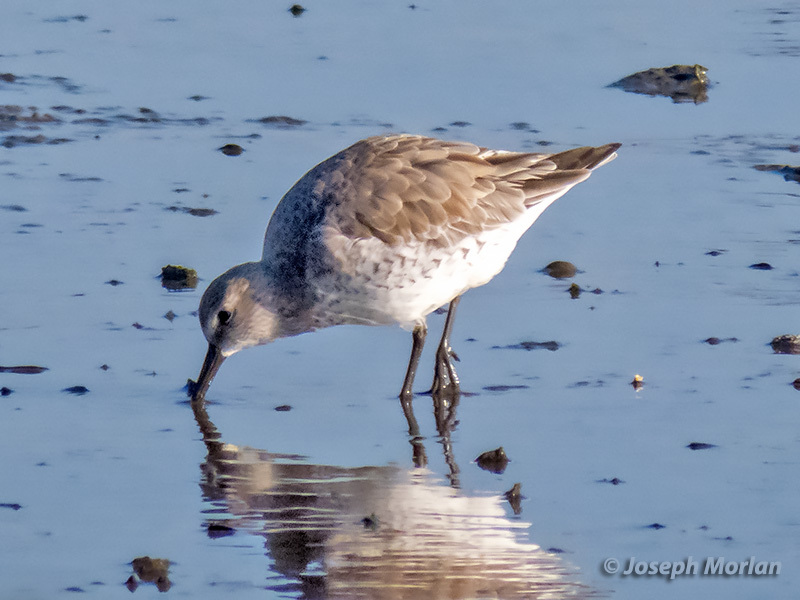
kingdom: Animalia
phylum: Chordata
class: Aves
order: Charadriiformes
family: Scolopacidae
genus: Calidris
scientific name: Calidris canutus
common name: Red knot
